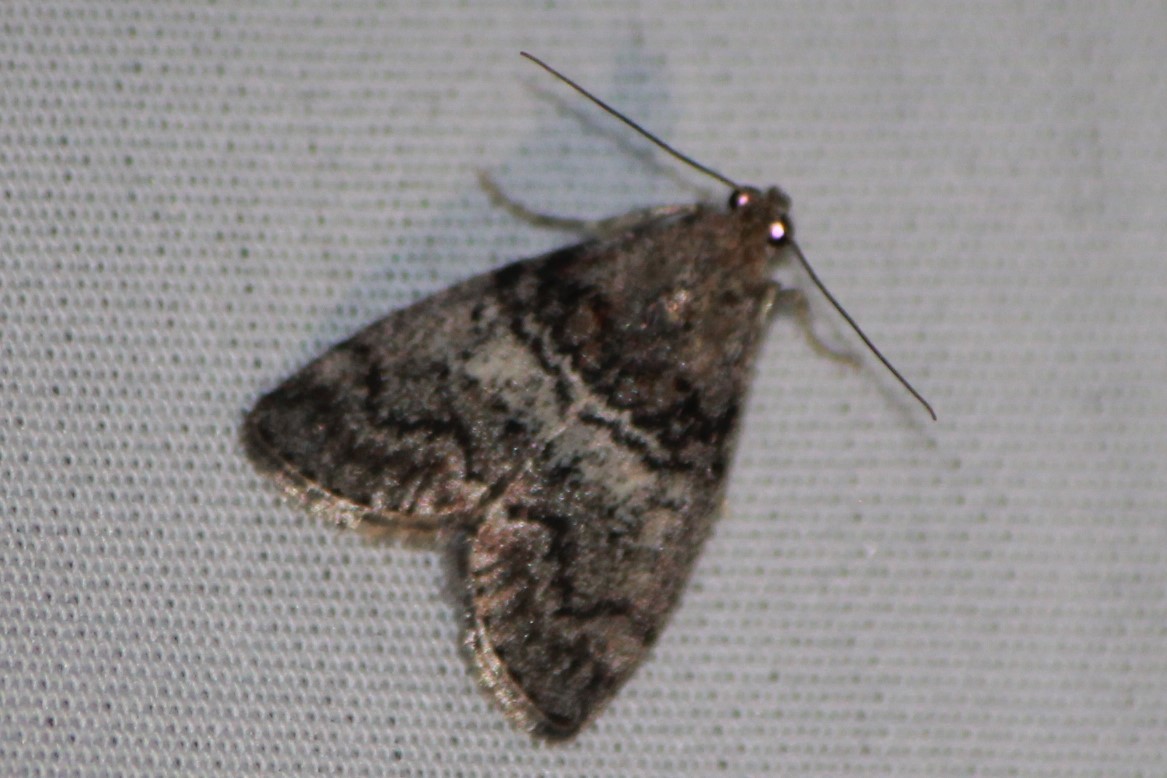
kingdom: Animalia
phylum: Arthropoda
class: Insecta
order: Lepidoptera
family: Pyralidae
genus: Pococera
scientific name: Pococera asperatella
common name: Maple webworm moth
